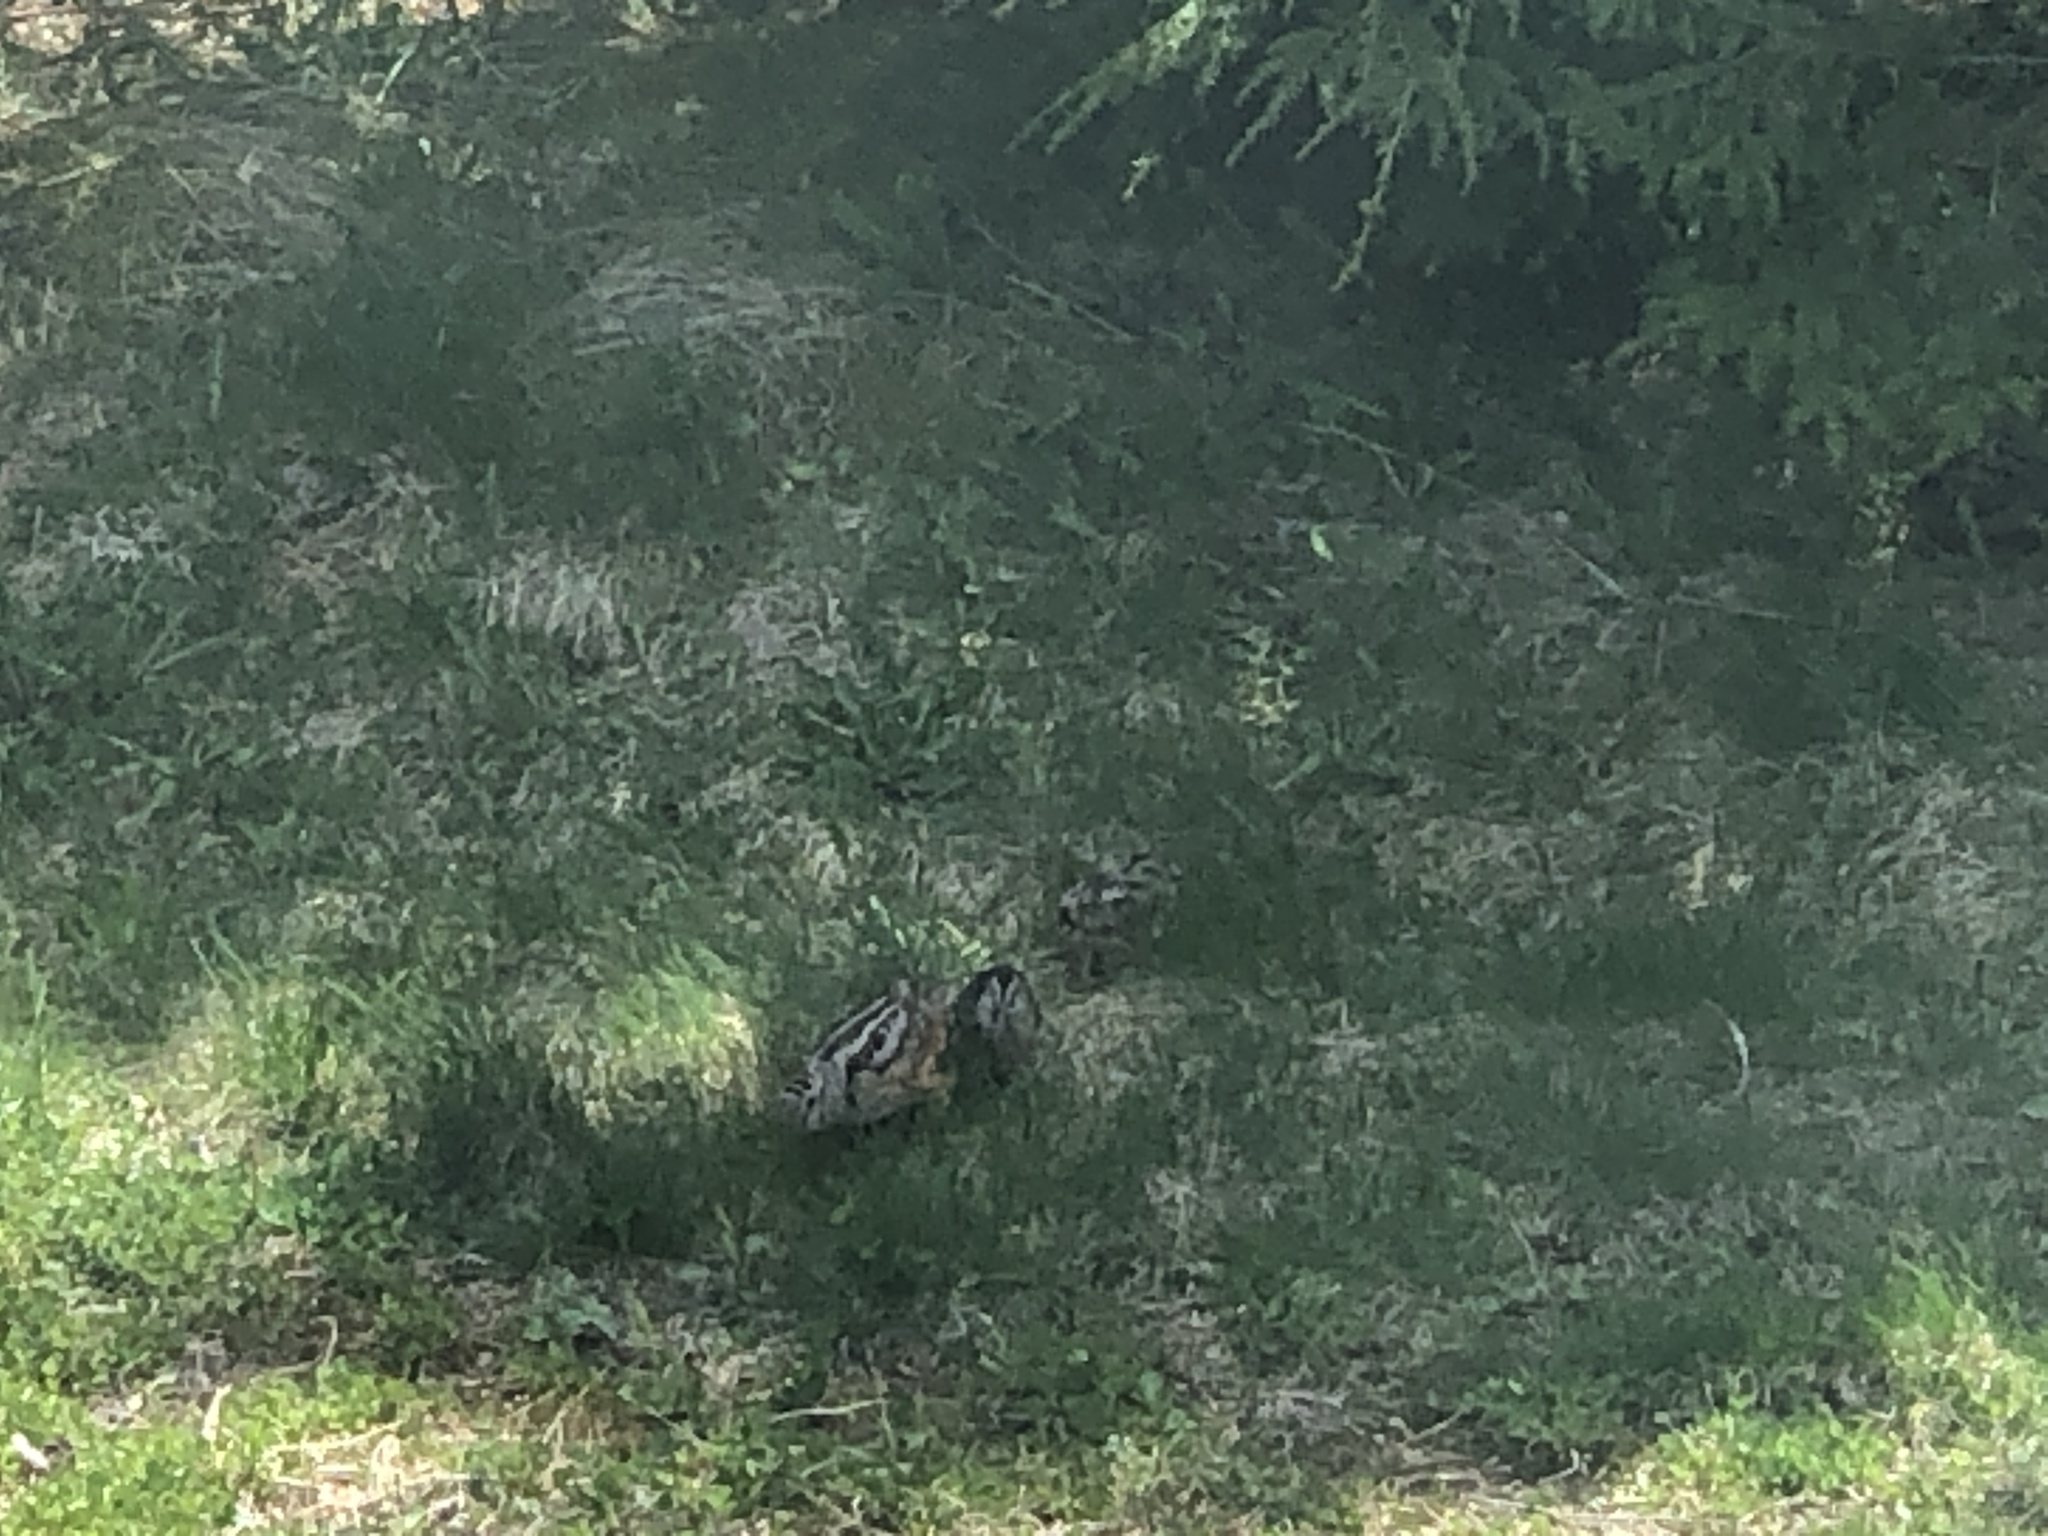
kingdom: Animalia
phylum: Chordata
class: Aves
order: Charadriiformes
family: Scolopacidae
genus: Scolopax
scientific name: Scolopax minor
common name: American woodcock
